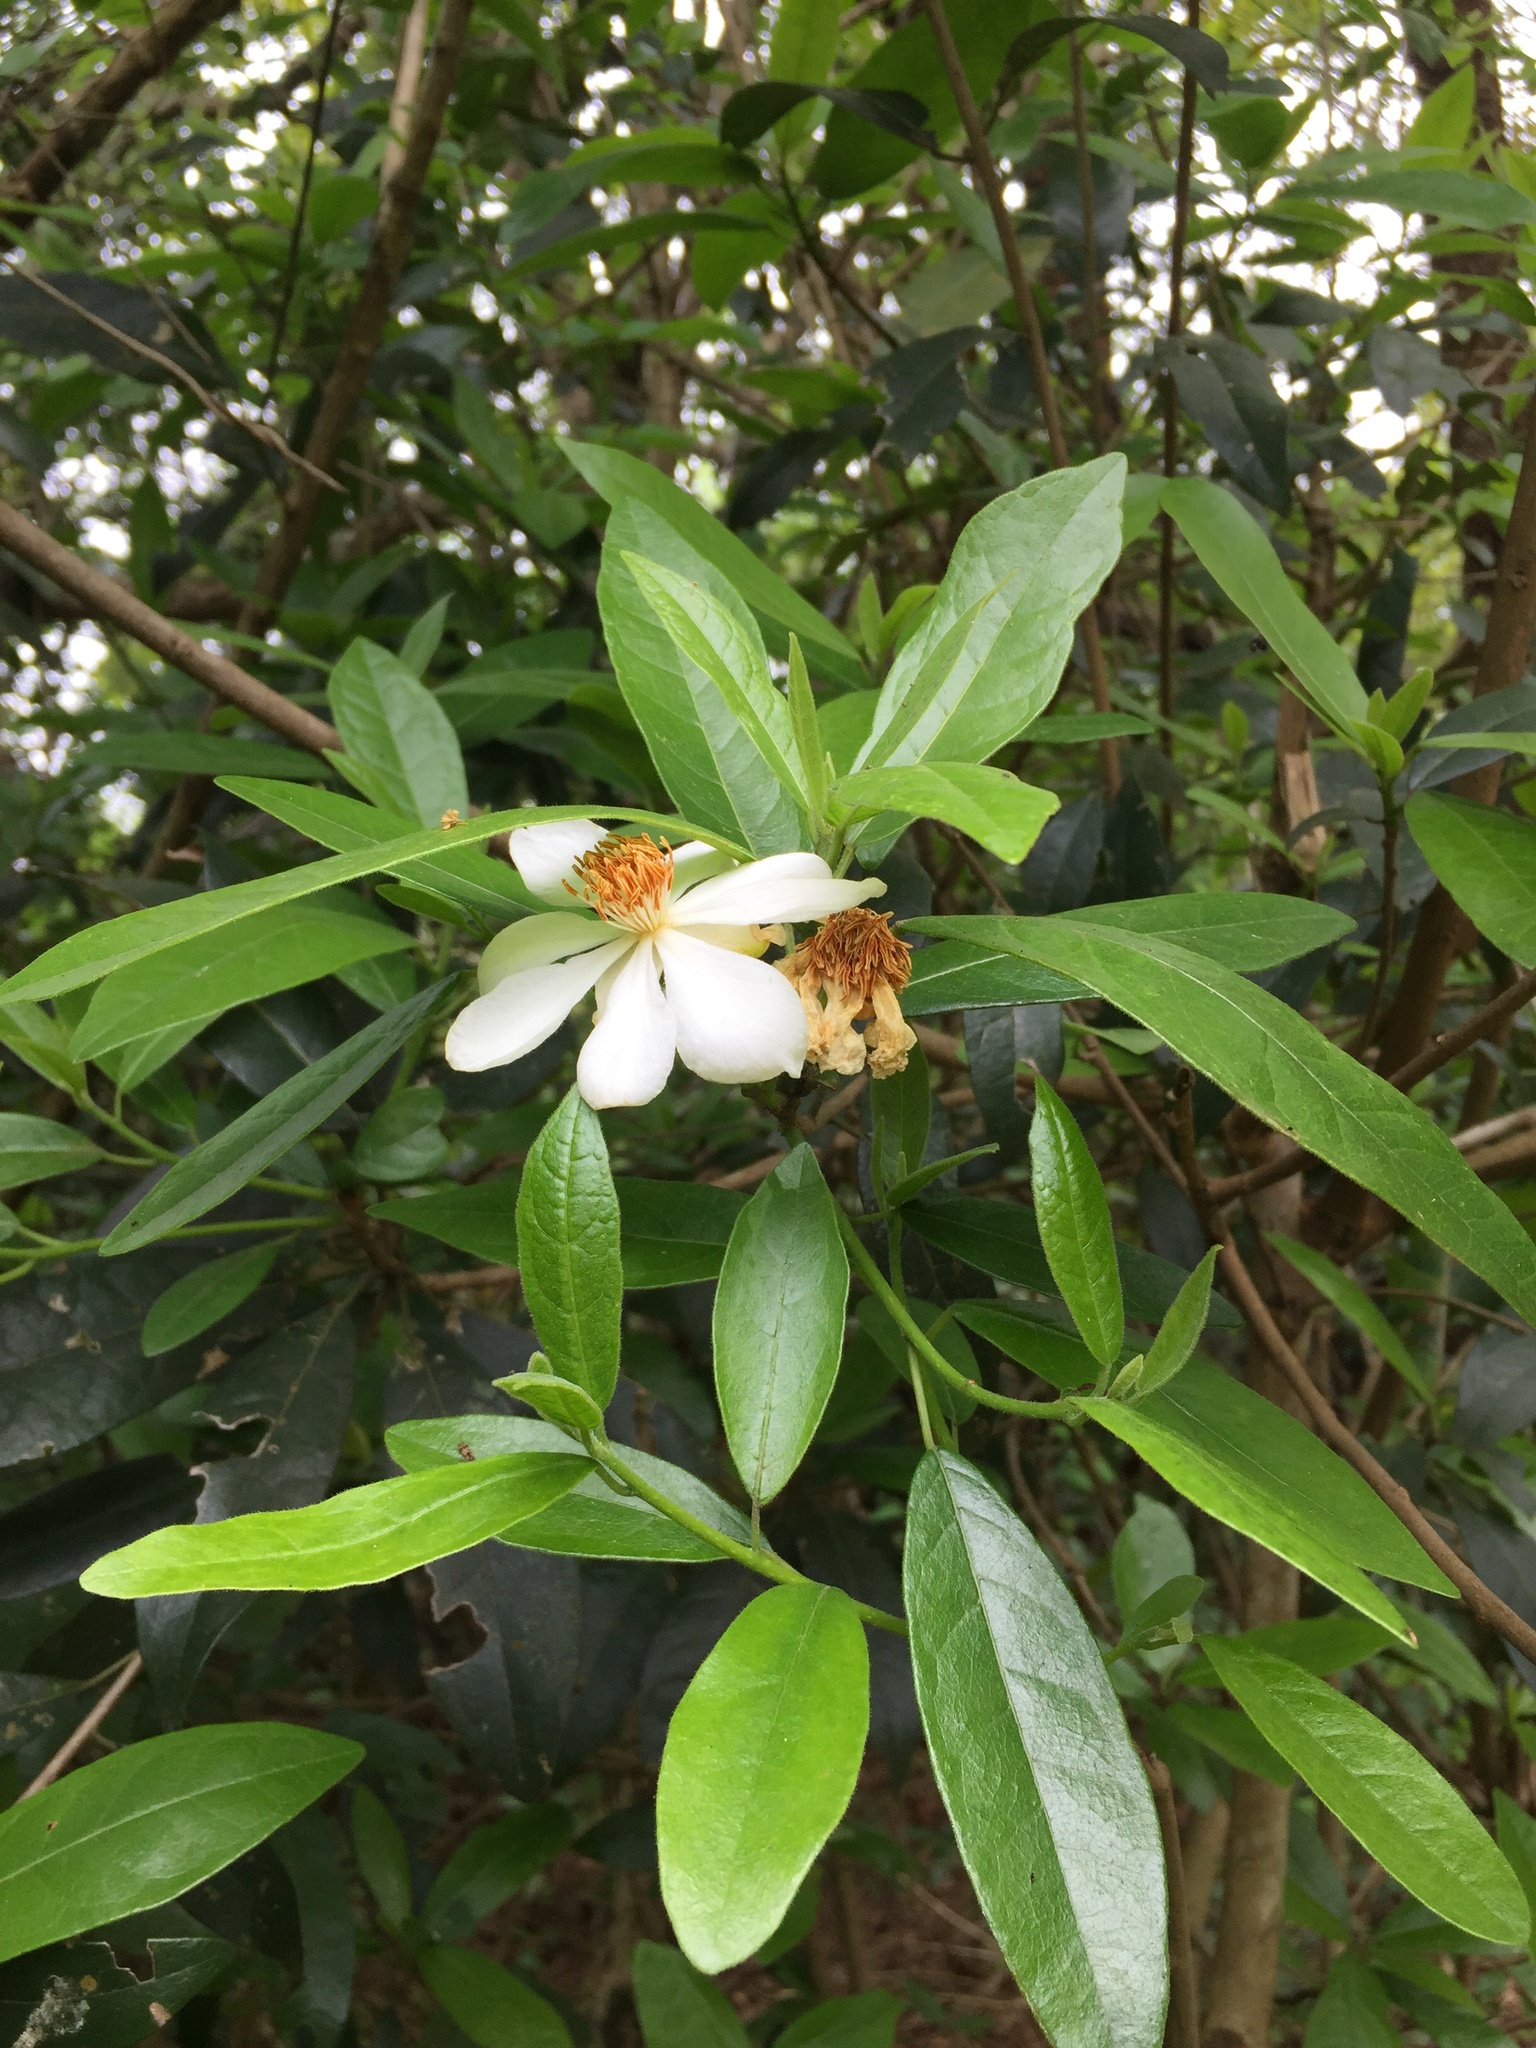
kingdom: Plantae
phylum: Tracheophyta
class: Magnoliopsida
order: Malpighiales
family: Achariaceae
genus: Xylotheca
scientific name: Xylotheca kraussiana
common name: African dog rose
